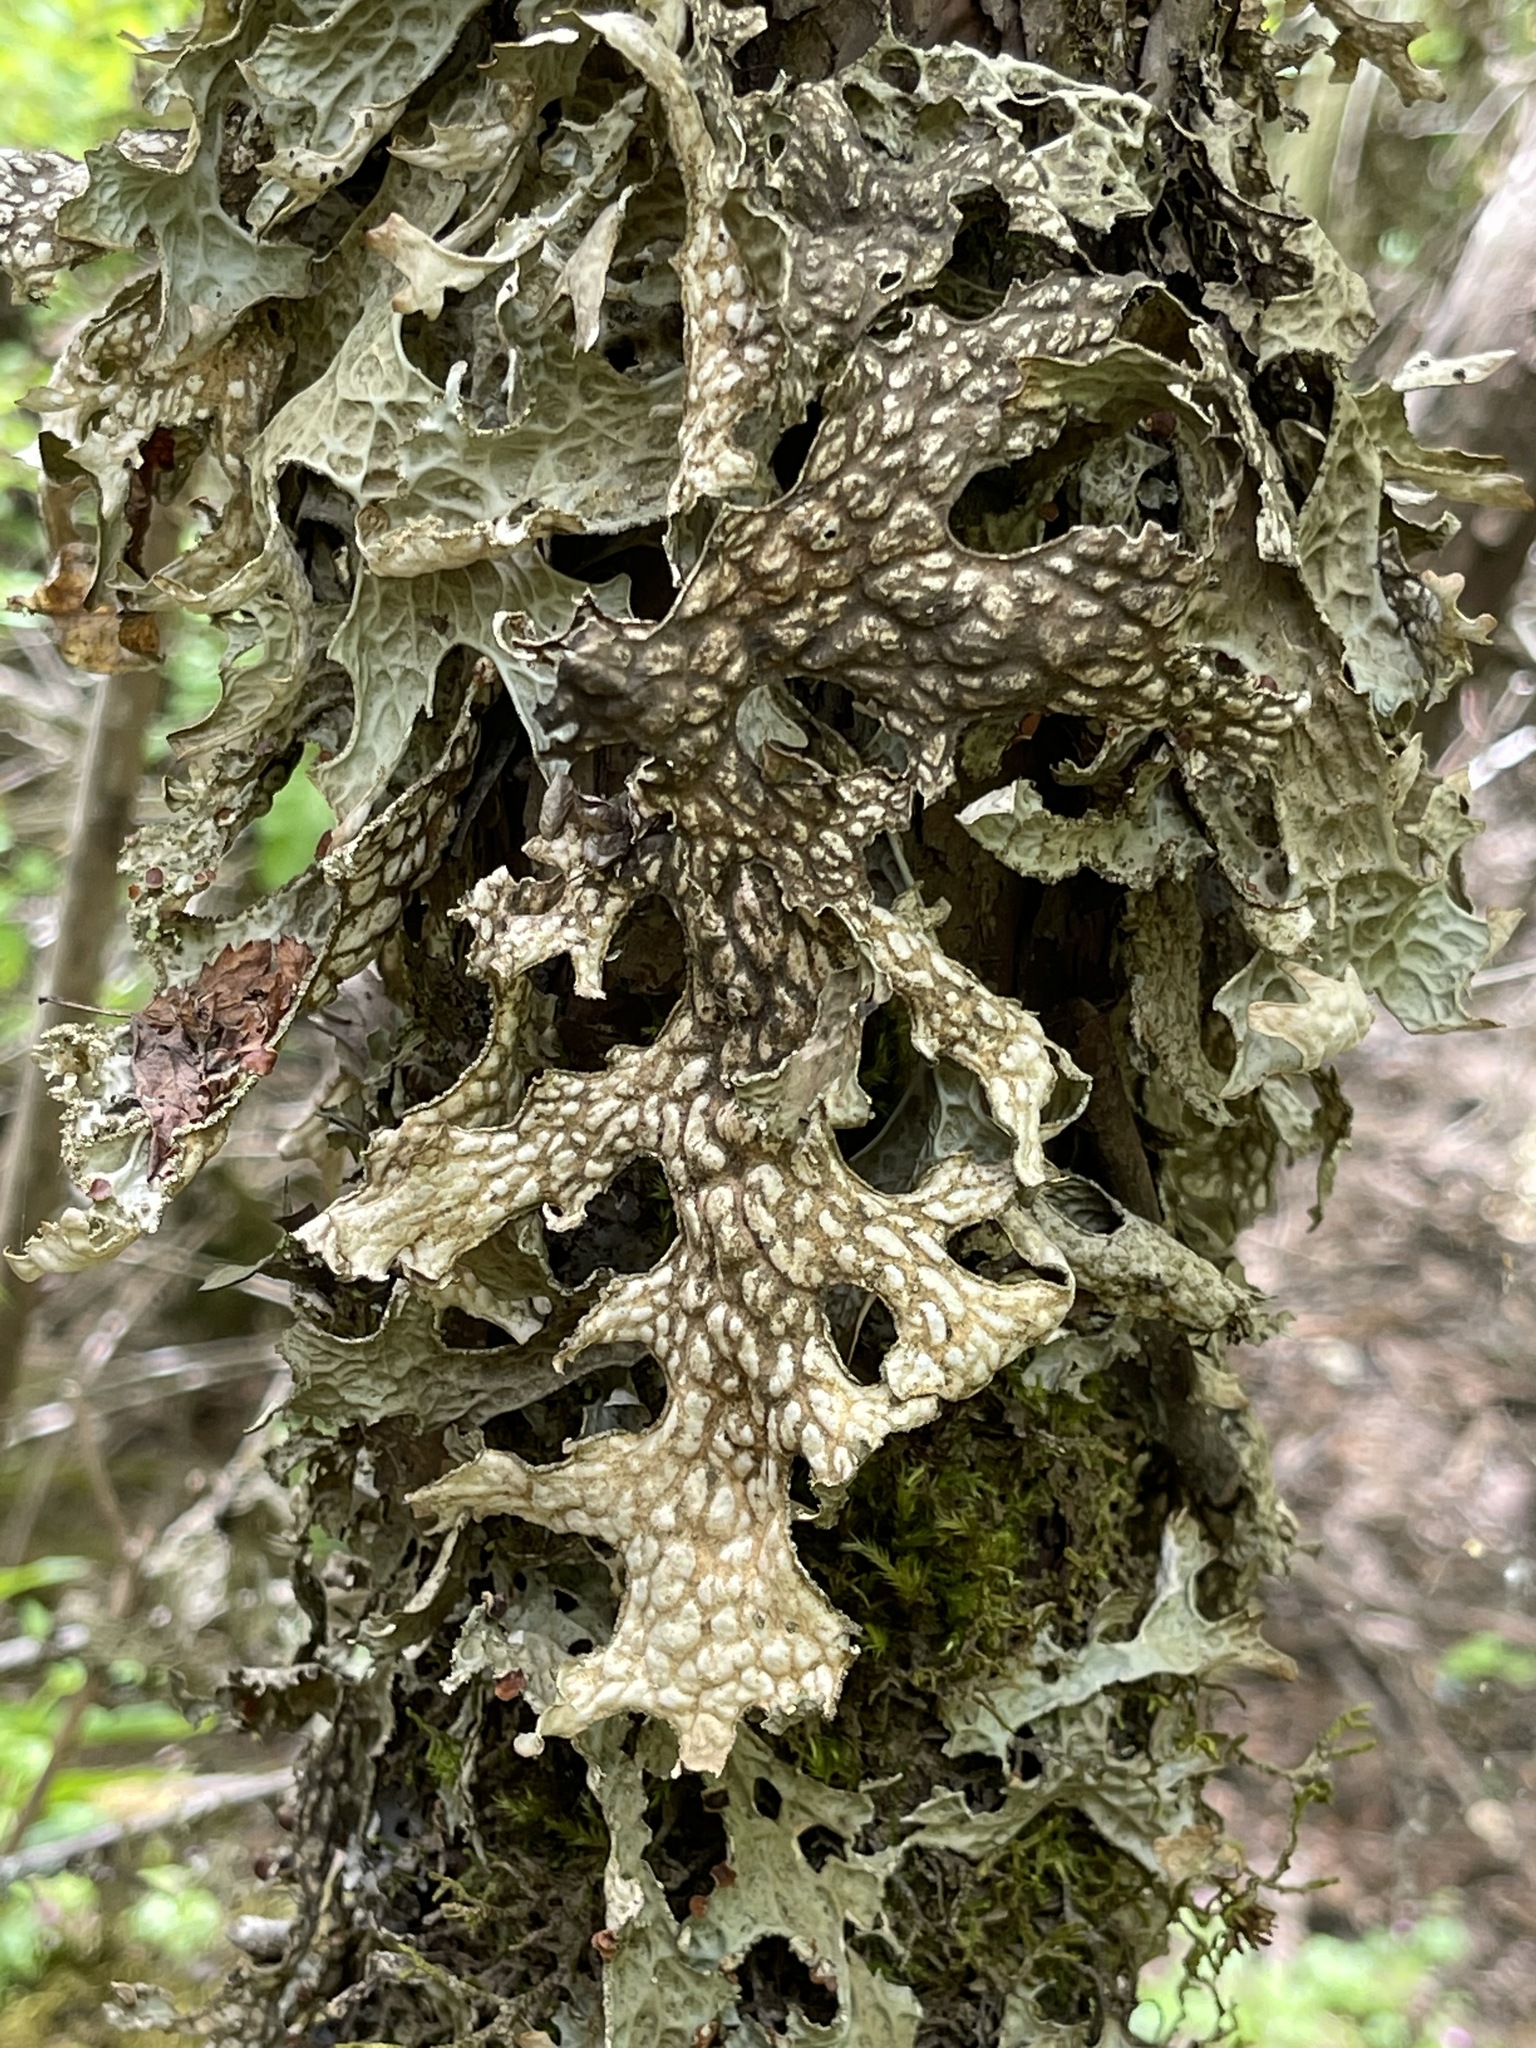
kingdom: Fungi
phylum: Ascomycota
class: Lecanoromycetes
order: Peltigerales
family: Lobariaceae
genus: Lobaria
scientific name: Lobaria pulmonaria
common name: Lungwort
